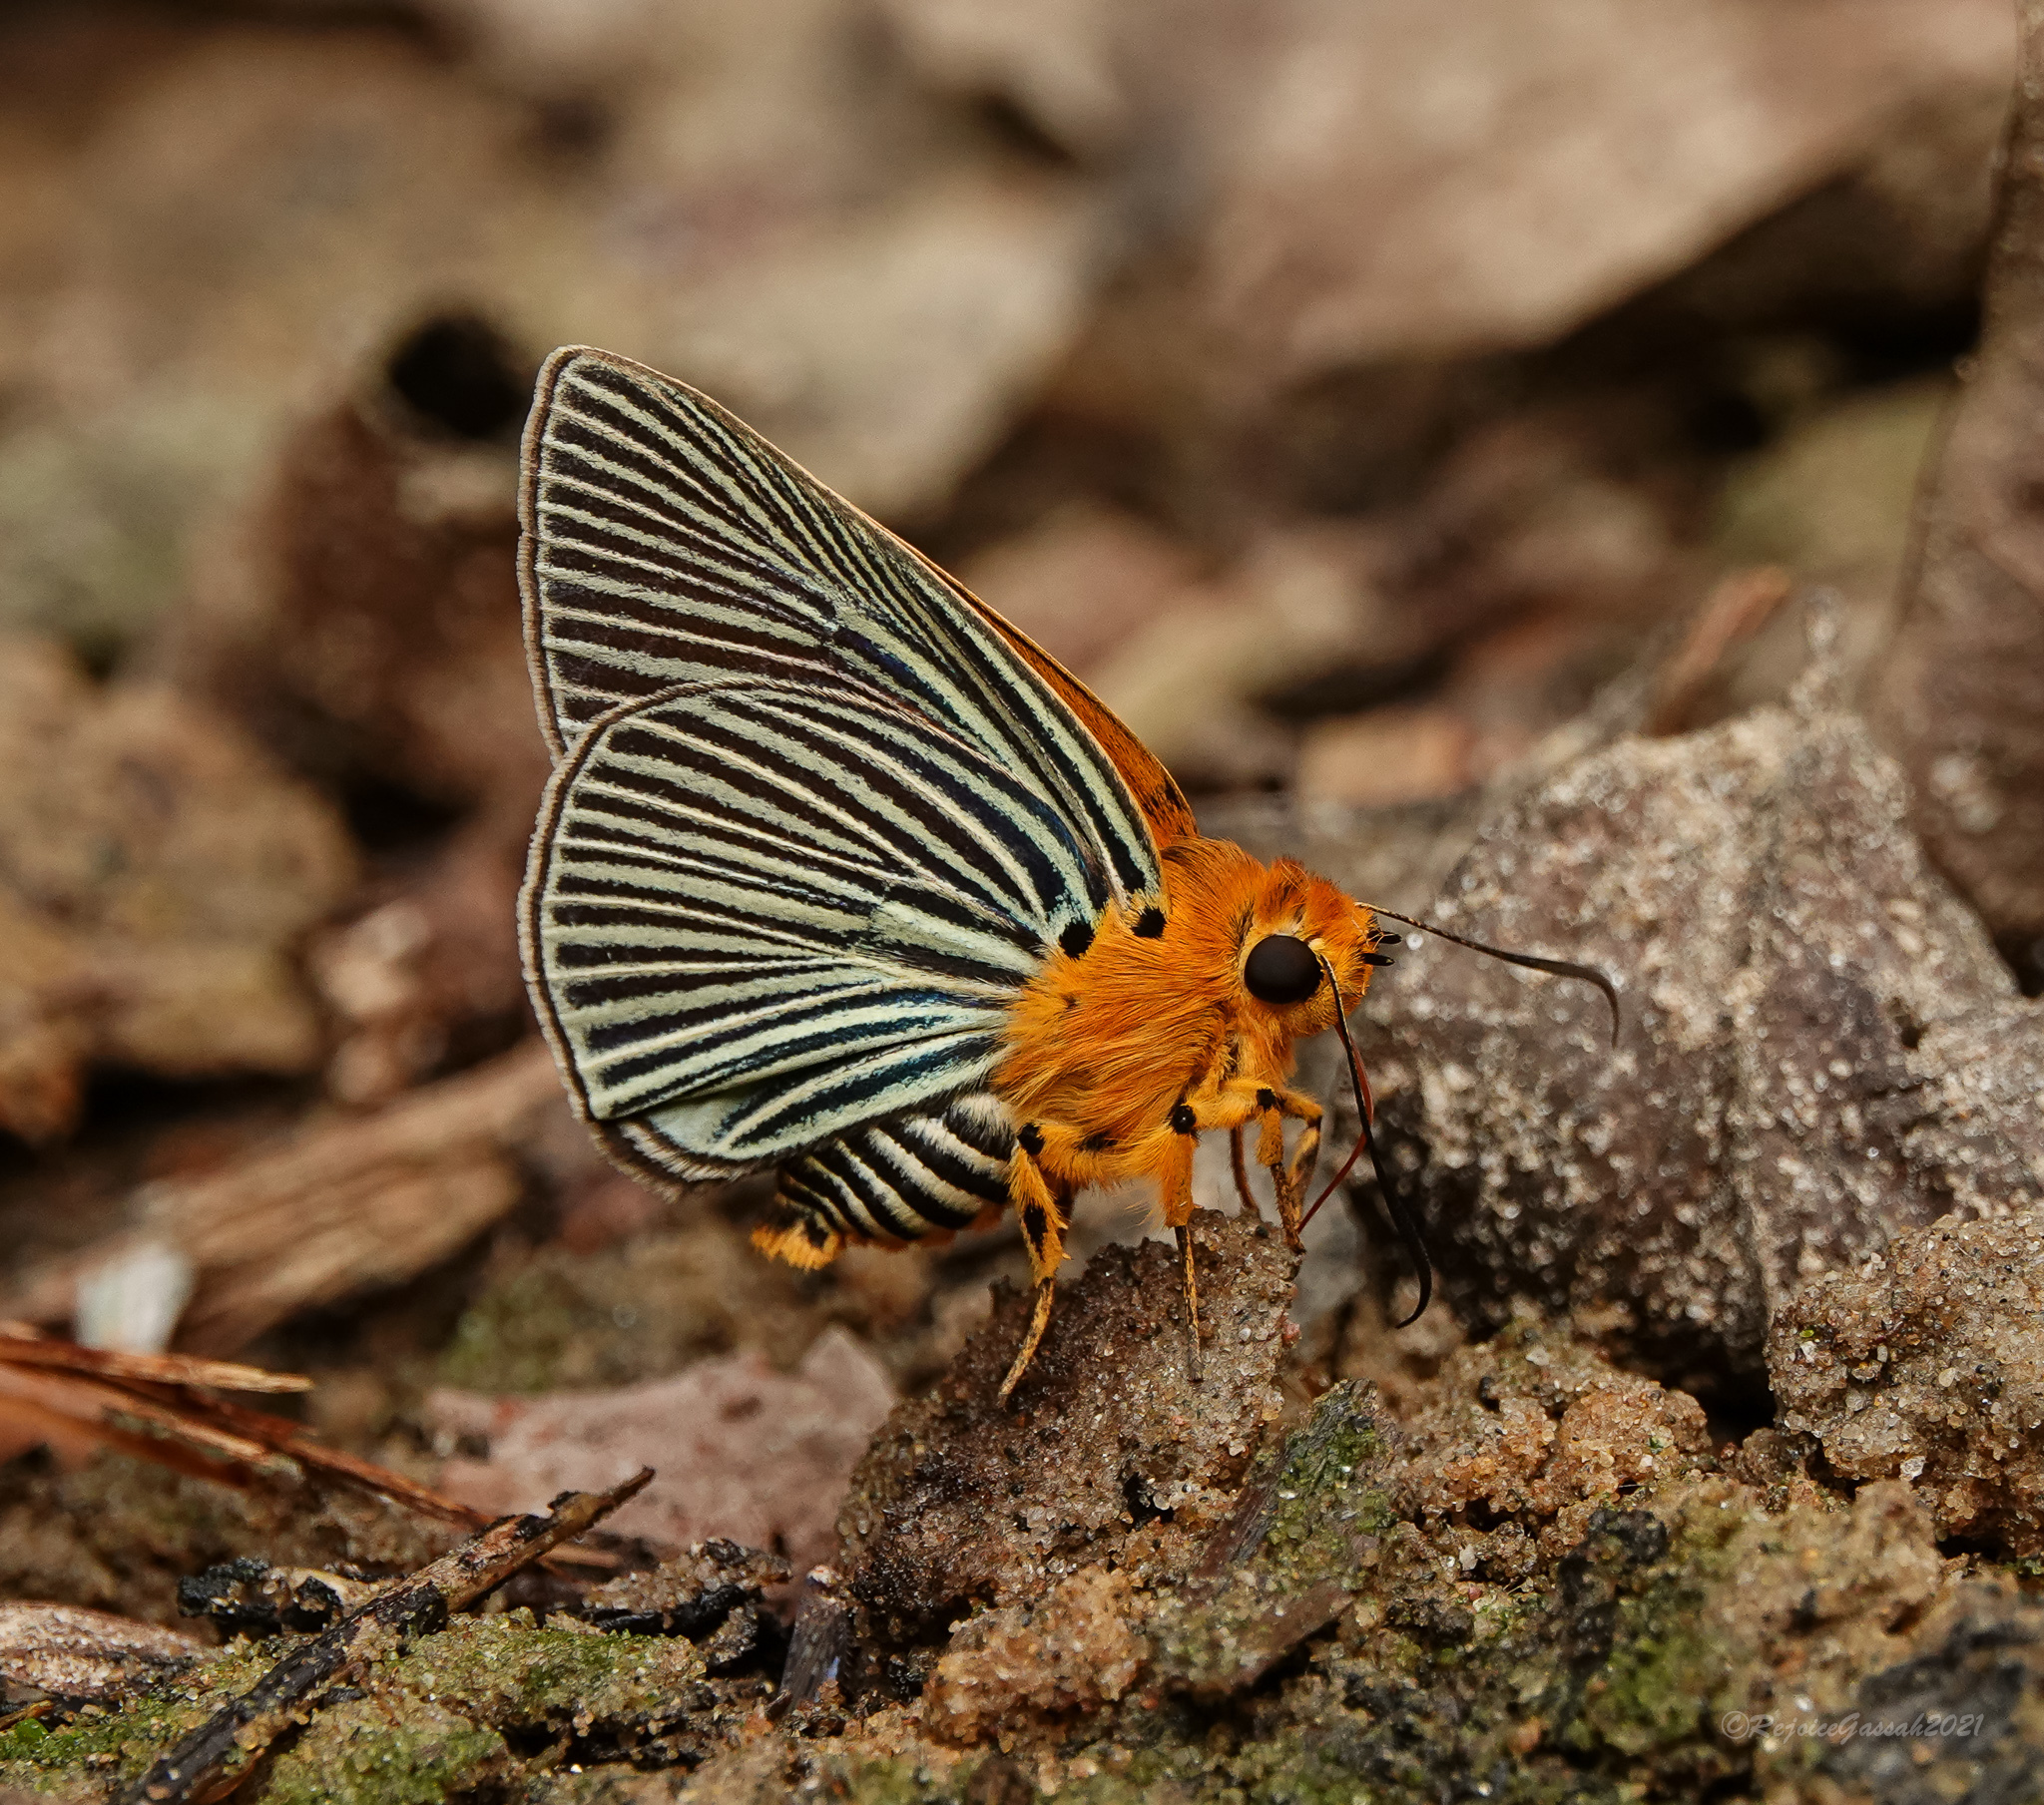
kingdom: Animalia
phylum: Arthropoda
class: Insecta
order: Lepidoptera
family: Hesperiidae
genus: Bibasis
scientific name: Bibasis amara
